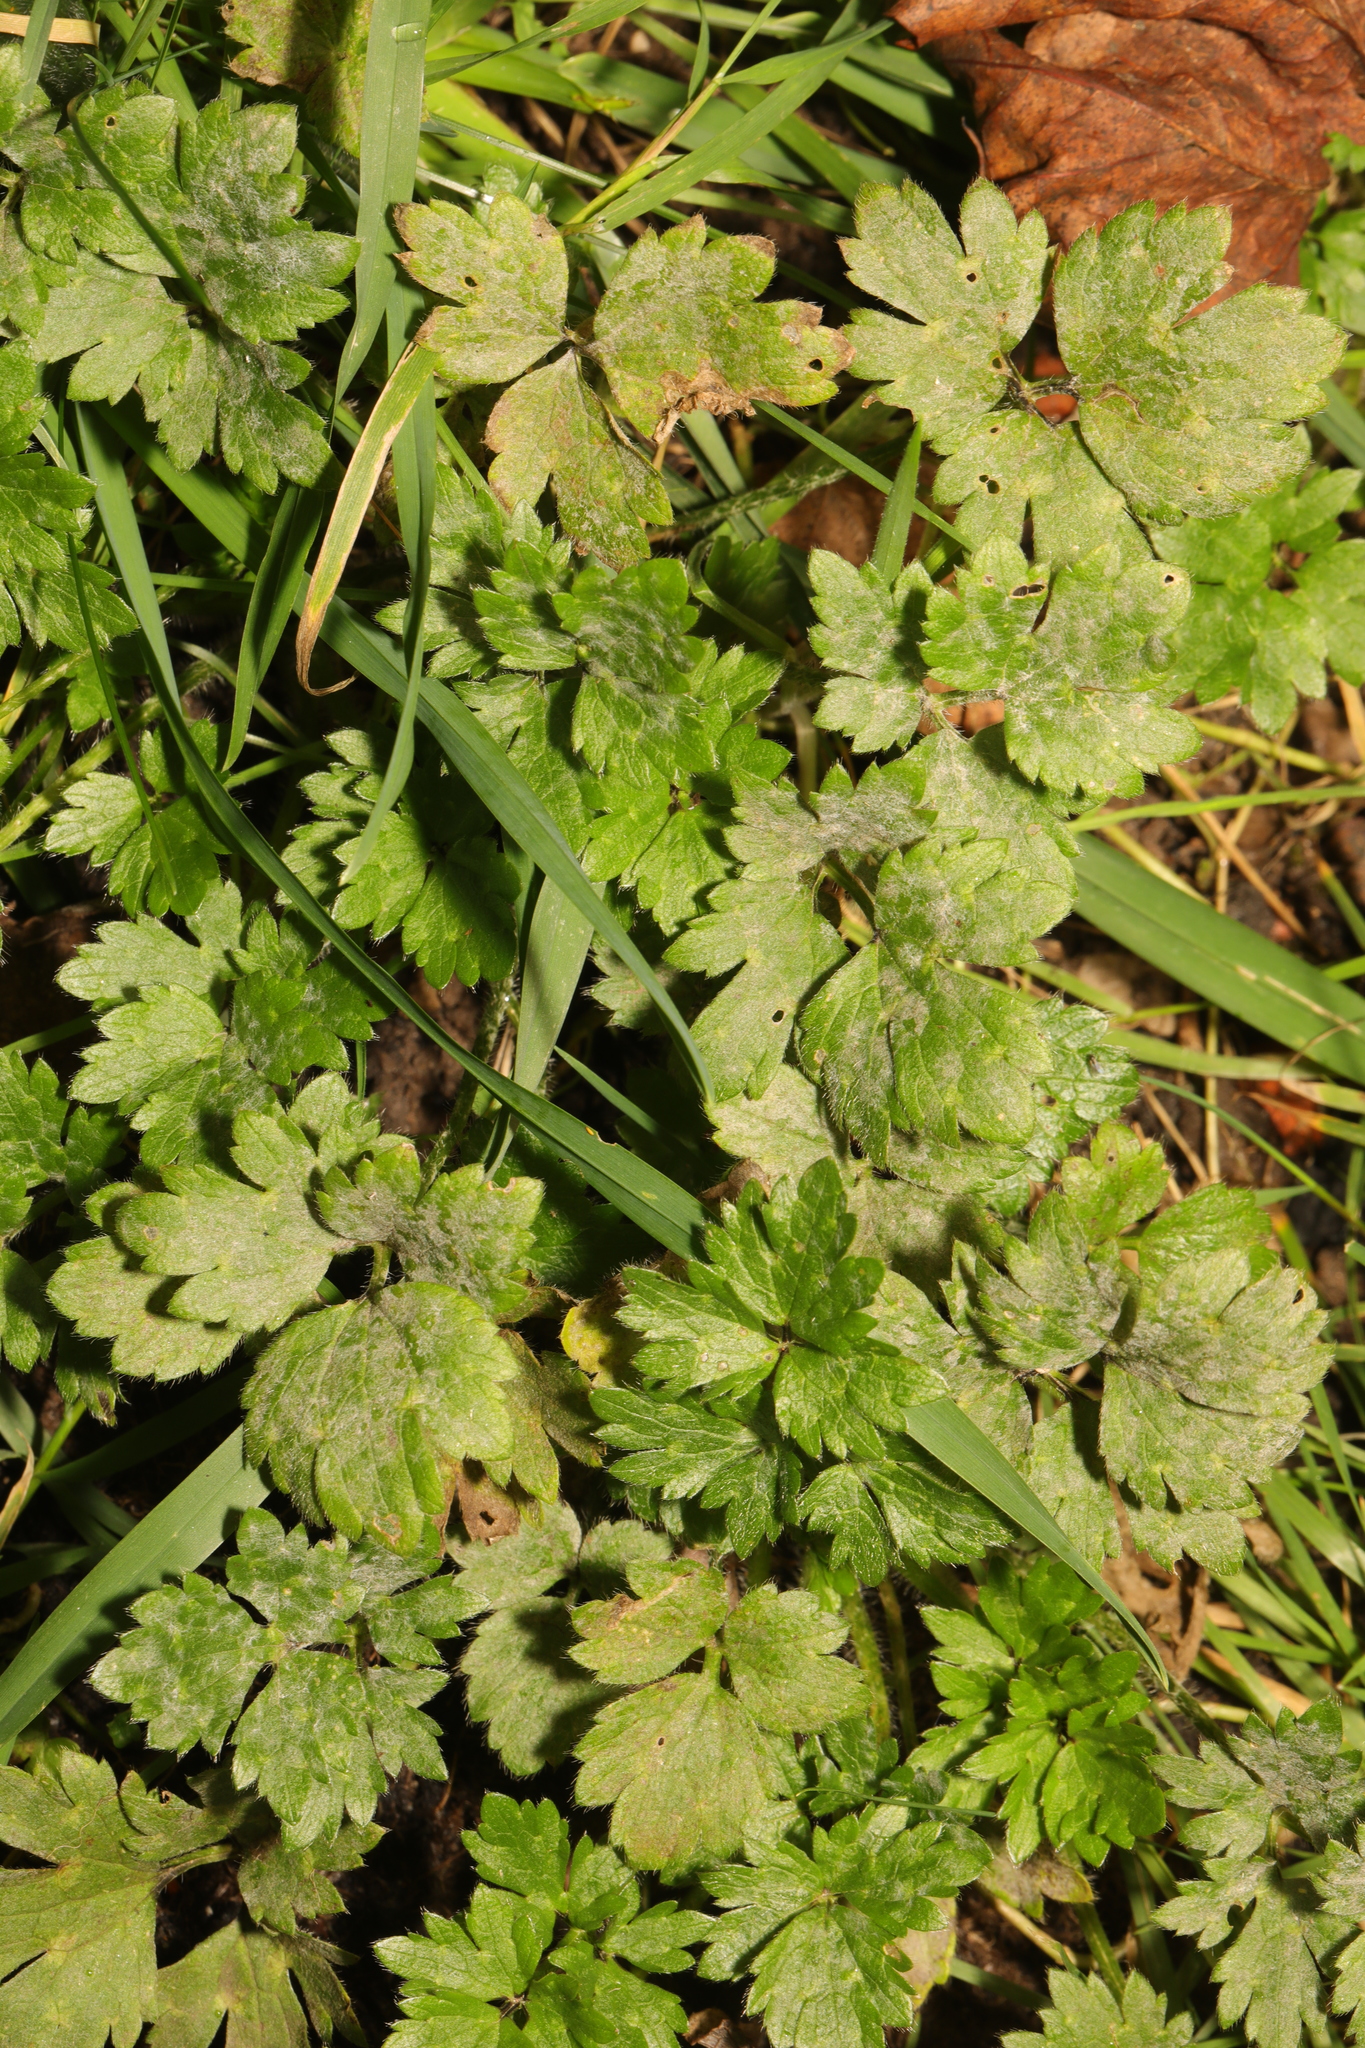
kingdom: Plantae
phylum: Tracheophyta
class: Magnoliopsida
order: Ranunculales
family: Ranunculaceae
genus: Ranunculus
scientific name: Ranunculus repens
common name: Creeping buttercup
